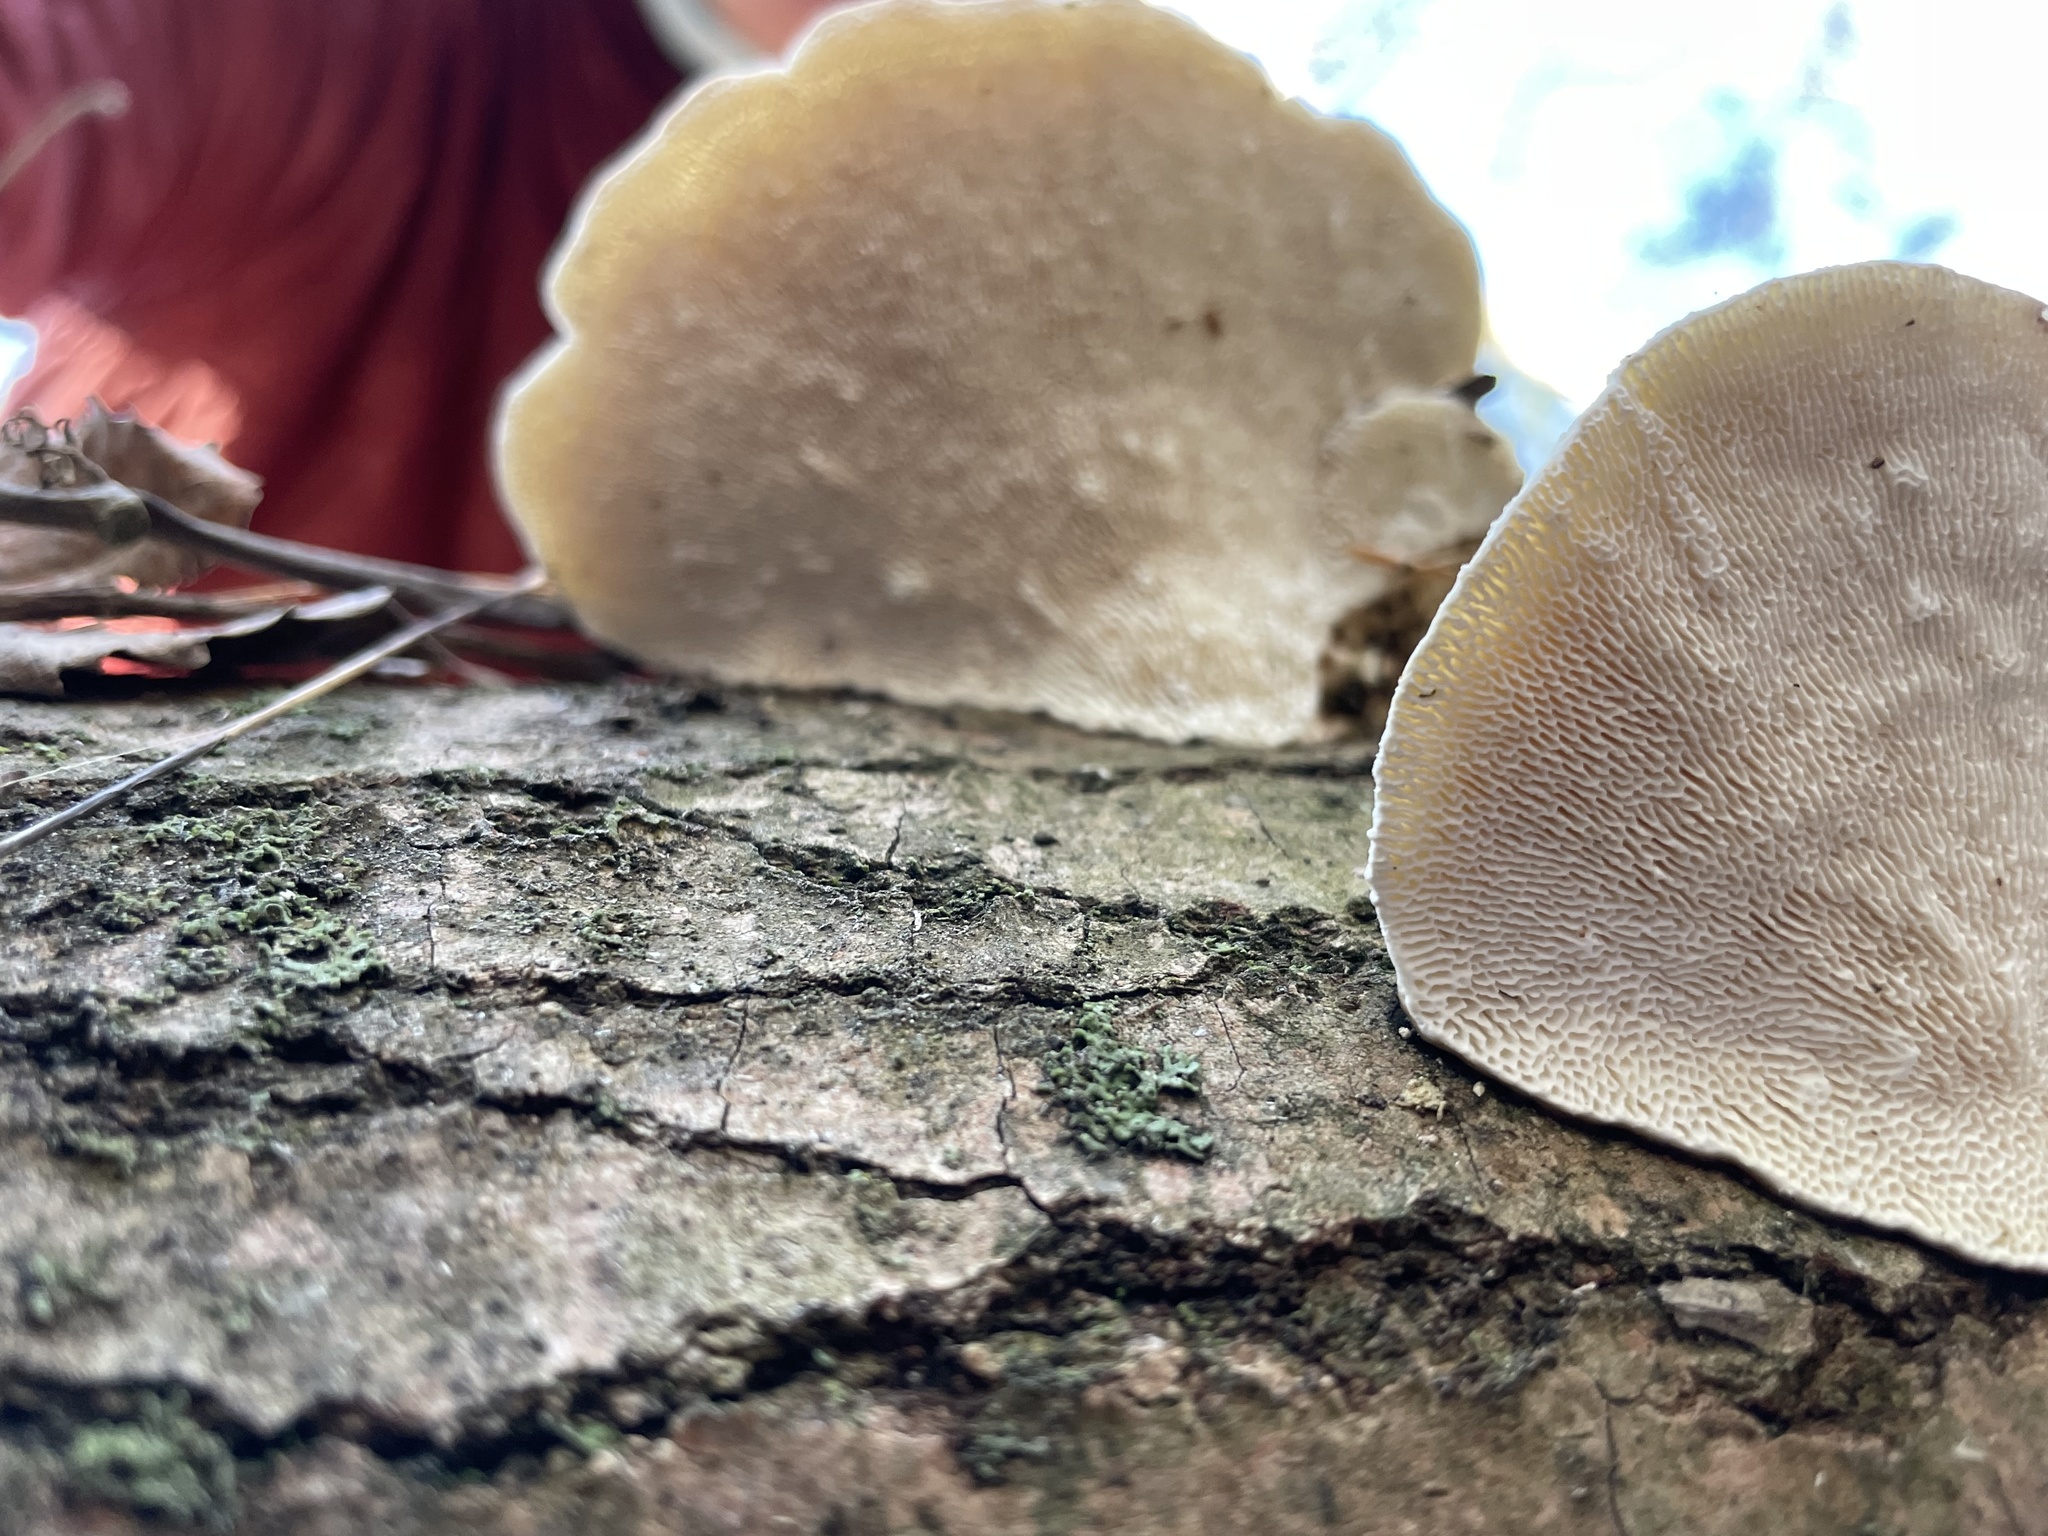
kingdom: Fungi
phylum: Basidiomycota
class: Agaricomycetes
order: Polyporales
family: Polyporaceae
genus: Trametes
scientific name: Trametes gibbosa
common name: Lumpy bracket
